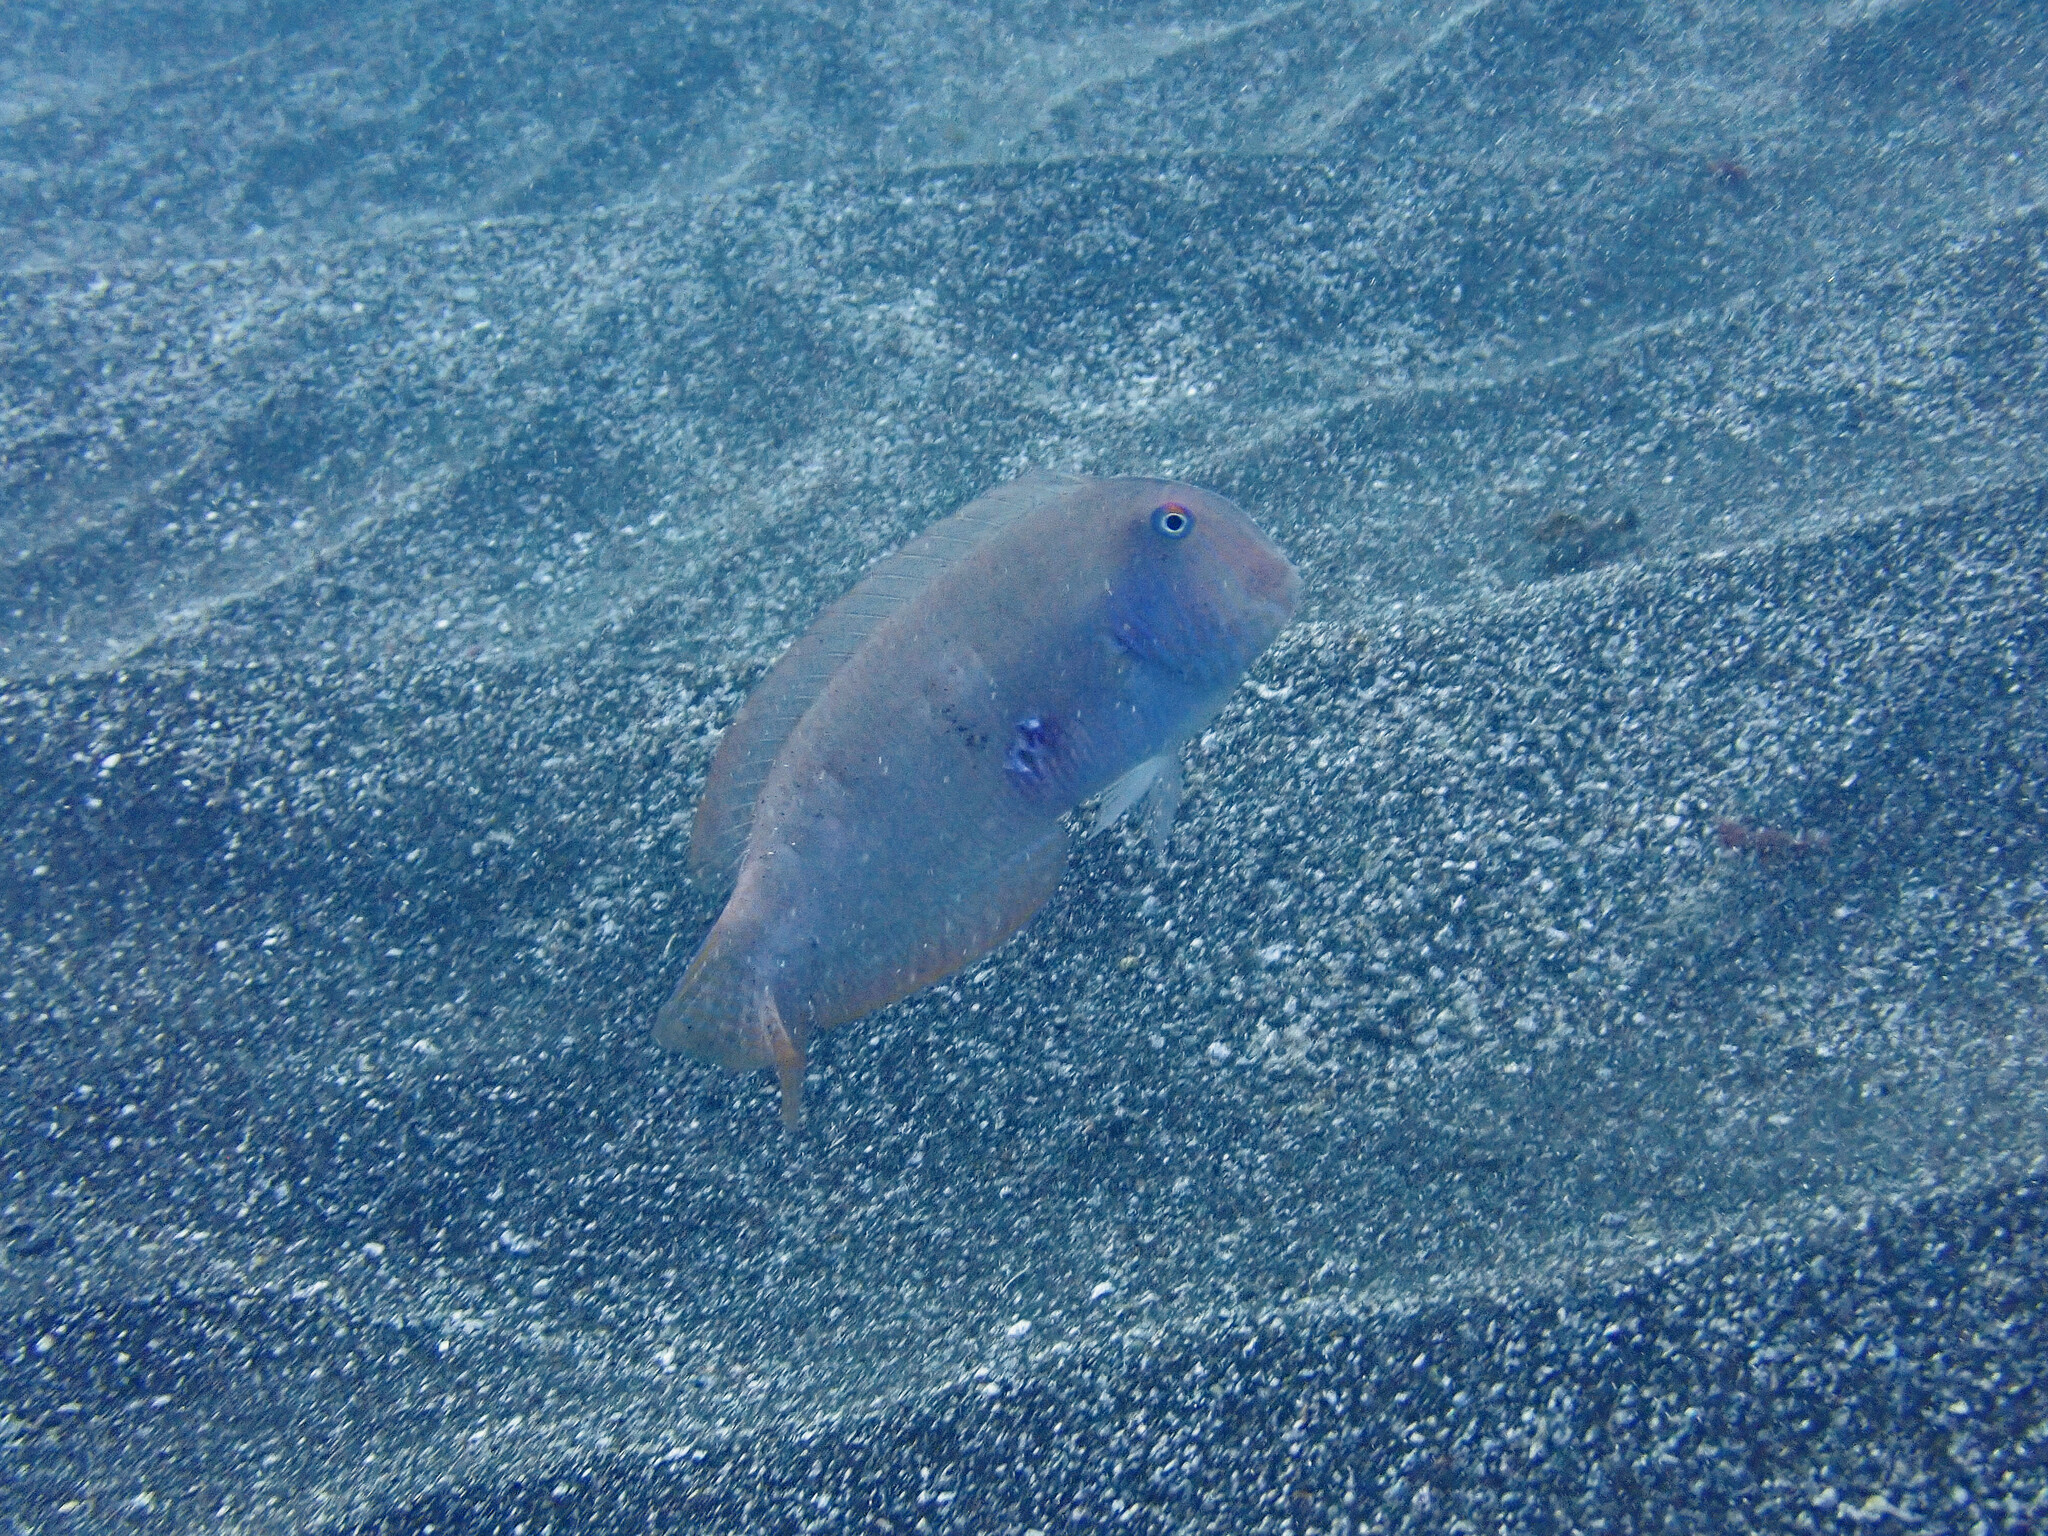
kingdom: Animalia
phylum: Chordata
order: Perciformes
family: Labridae
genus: Xyrichtys
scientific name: Xyrichtys novacula
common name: Pearly razorfish
